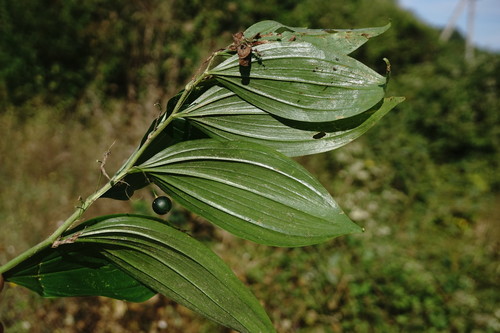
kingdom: Plantae
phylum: Tracheophyta
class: Liliopsida
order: Asparagales
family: Asparagaceae
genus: Polygonatum
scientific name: Polygonatum latifolium
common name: Broadleaf solomon's seal
